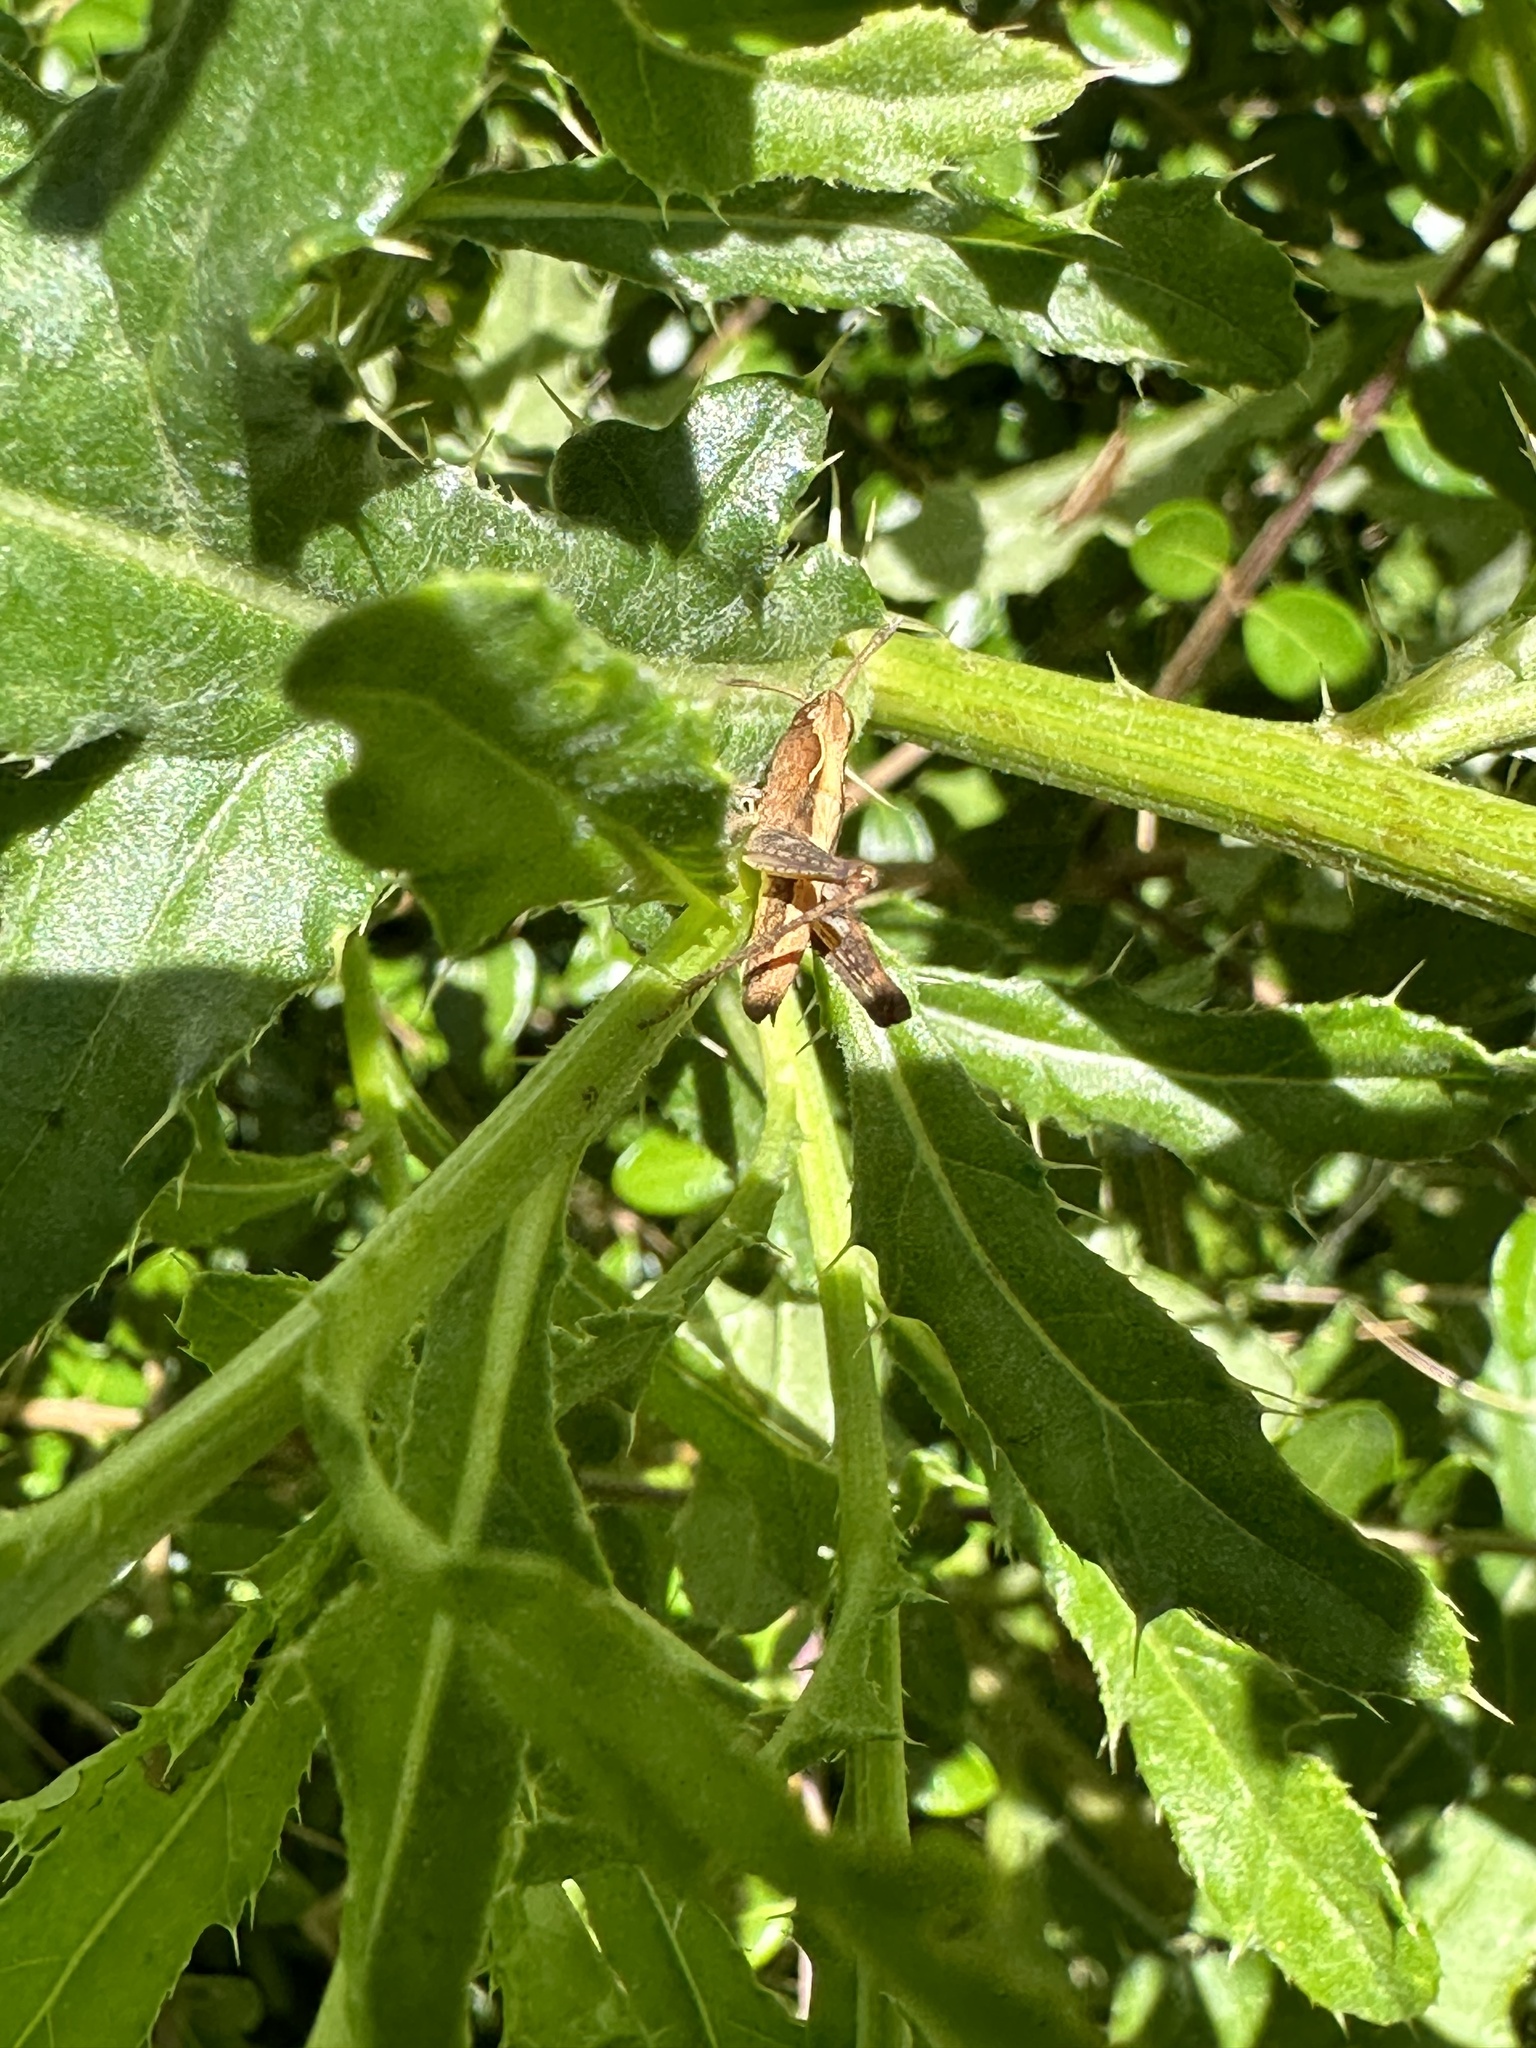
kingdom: Animalia
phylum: Arthropoda
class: Insecta
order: Orthoptera
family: Acrididae
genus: Gomphocerippus
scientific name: Gomphocerippus rufus
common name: Rufous grasshopper
